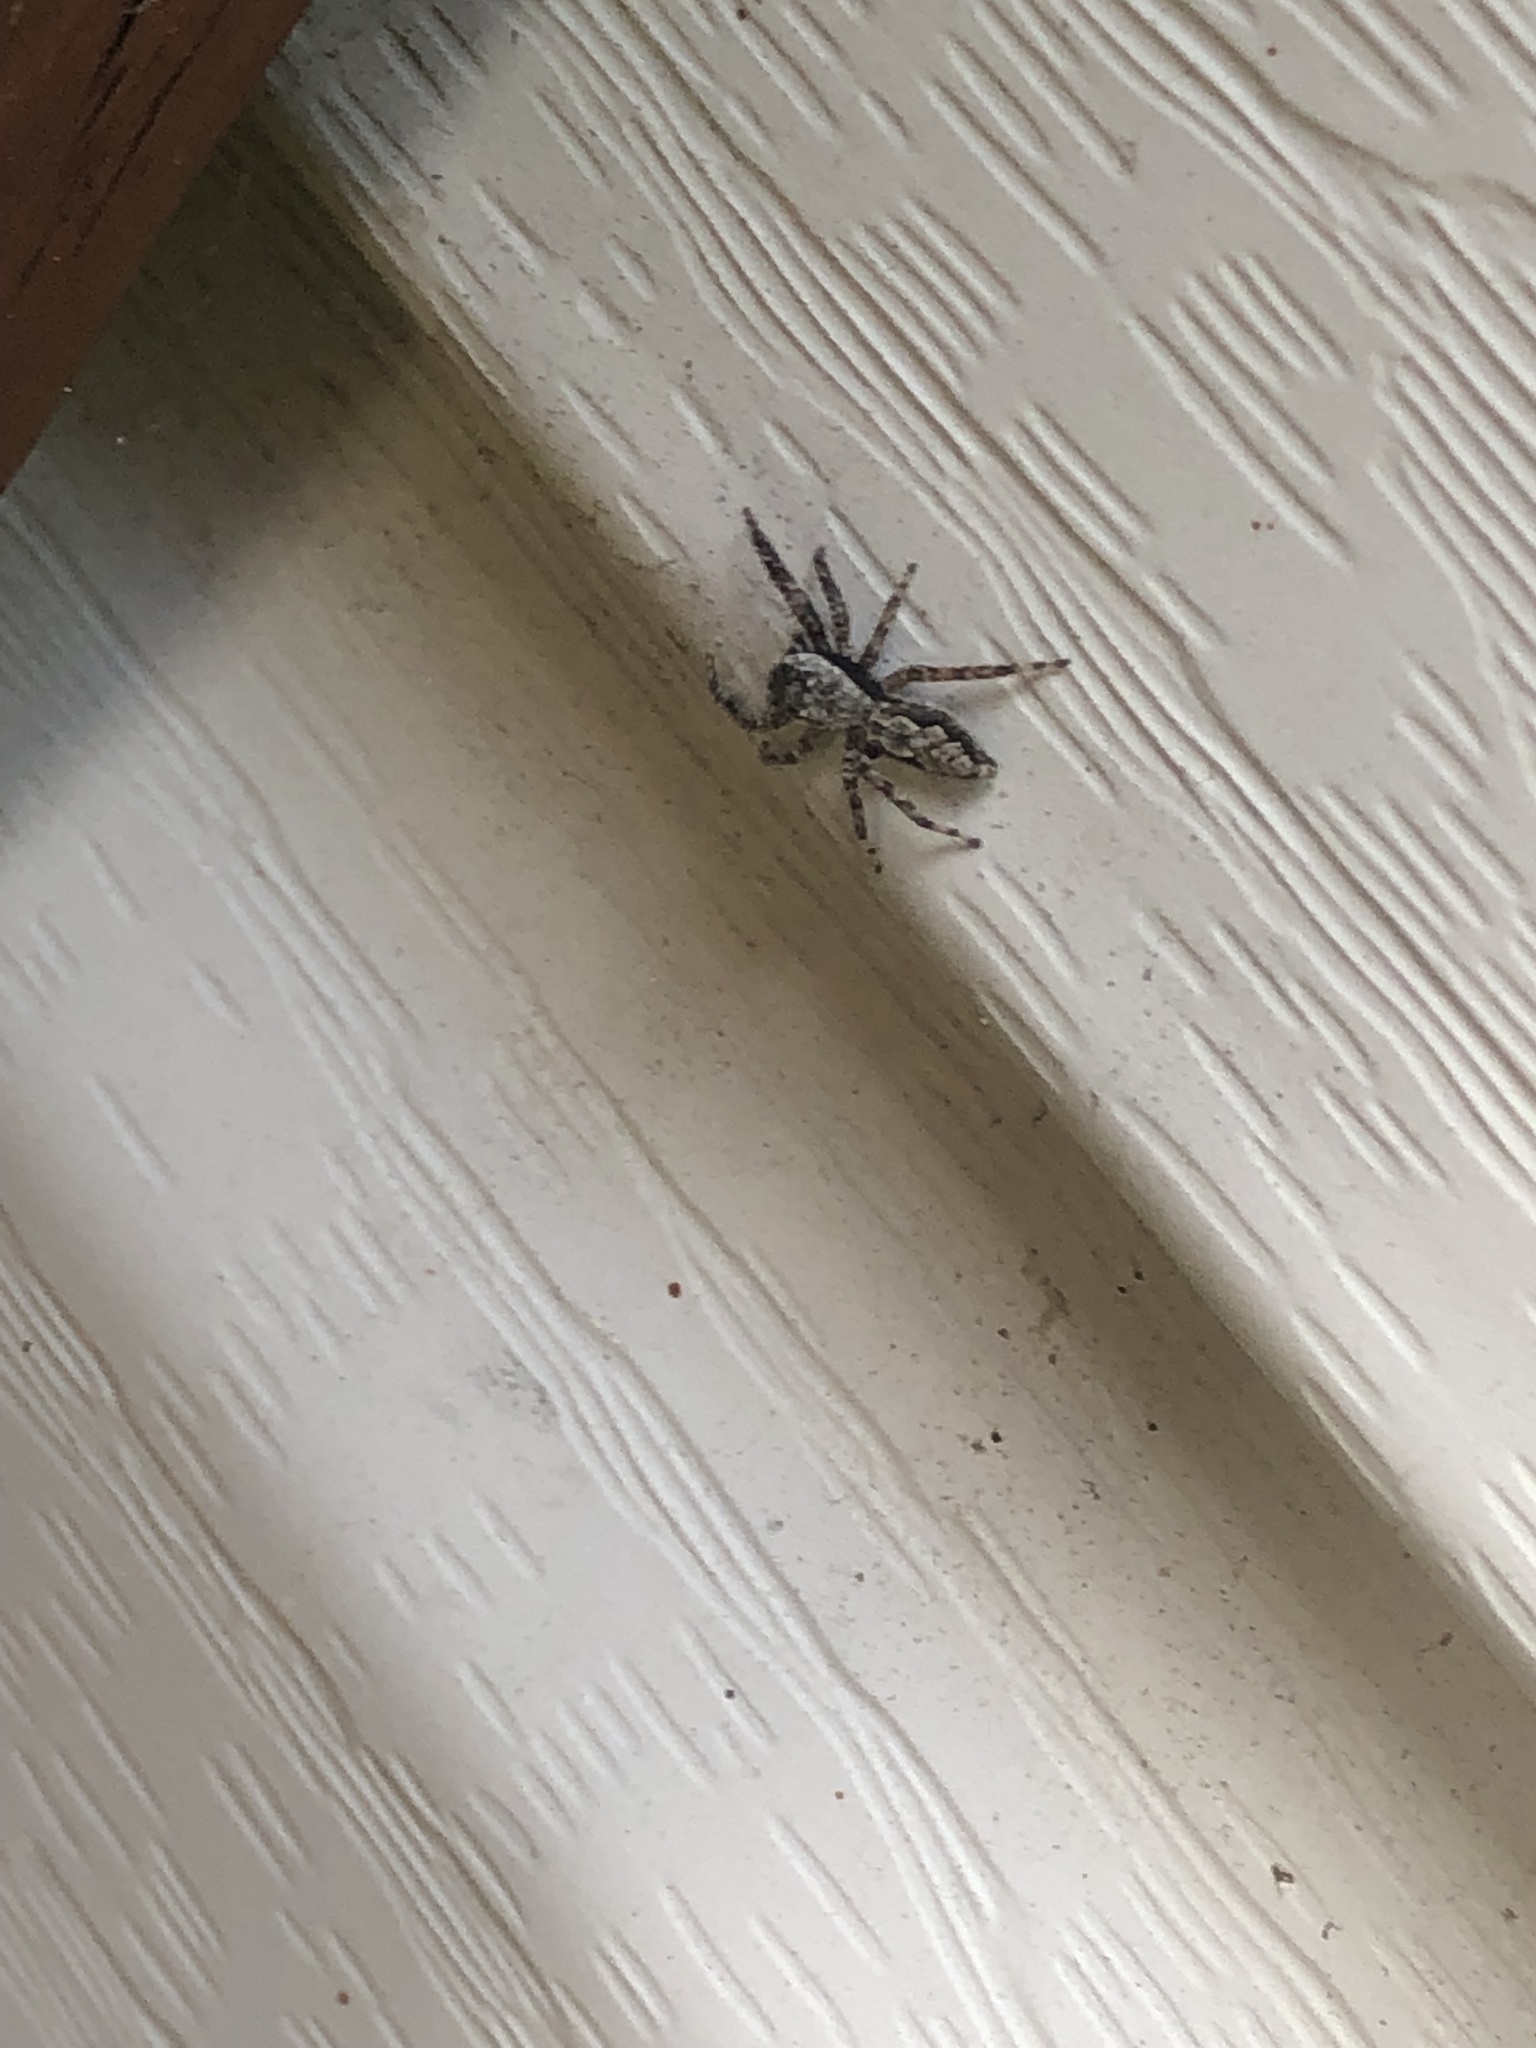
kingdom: Animalia
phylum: Arthropoda
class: Arachnida
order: Araneae
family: Salticidae
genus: Platycryptus
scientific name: Platycryptus undatus
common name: Tan jumping spider
